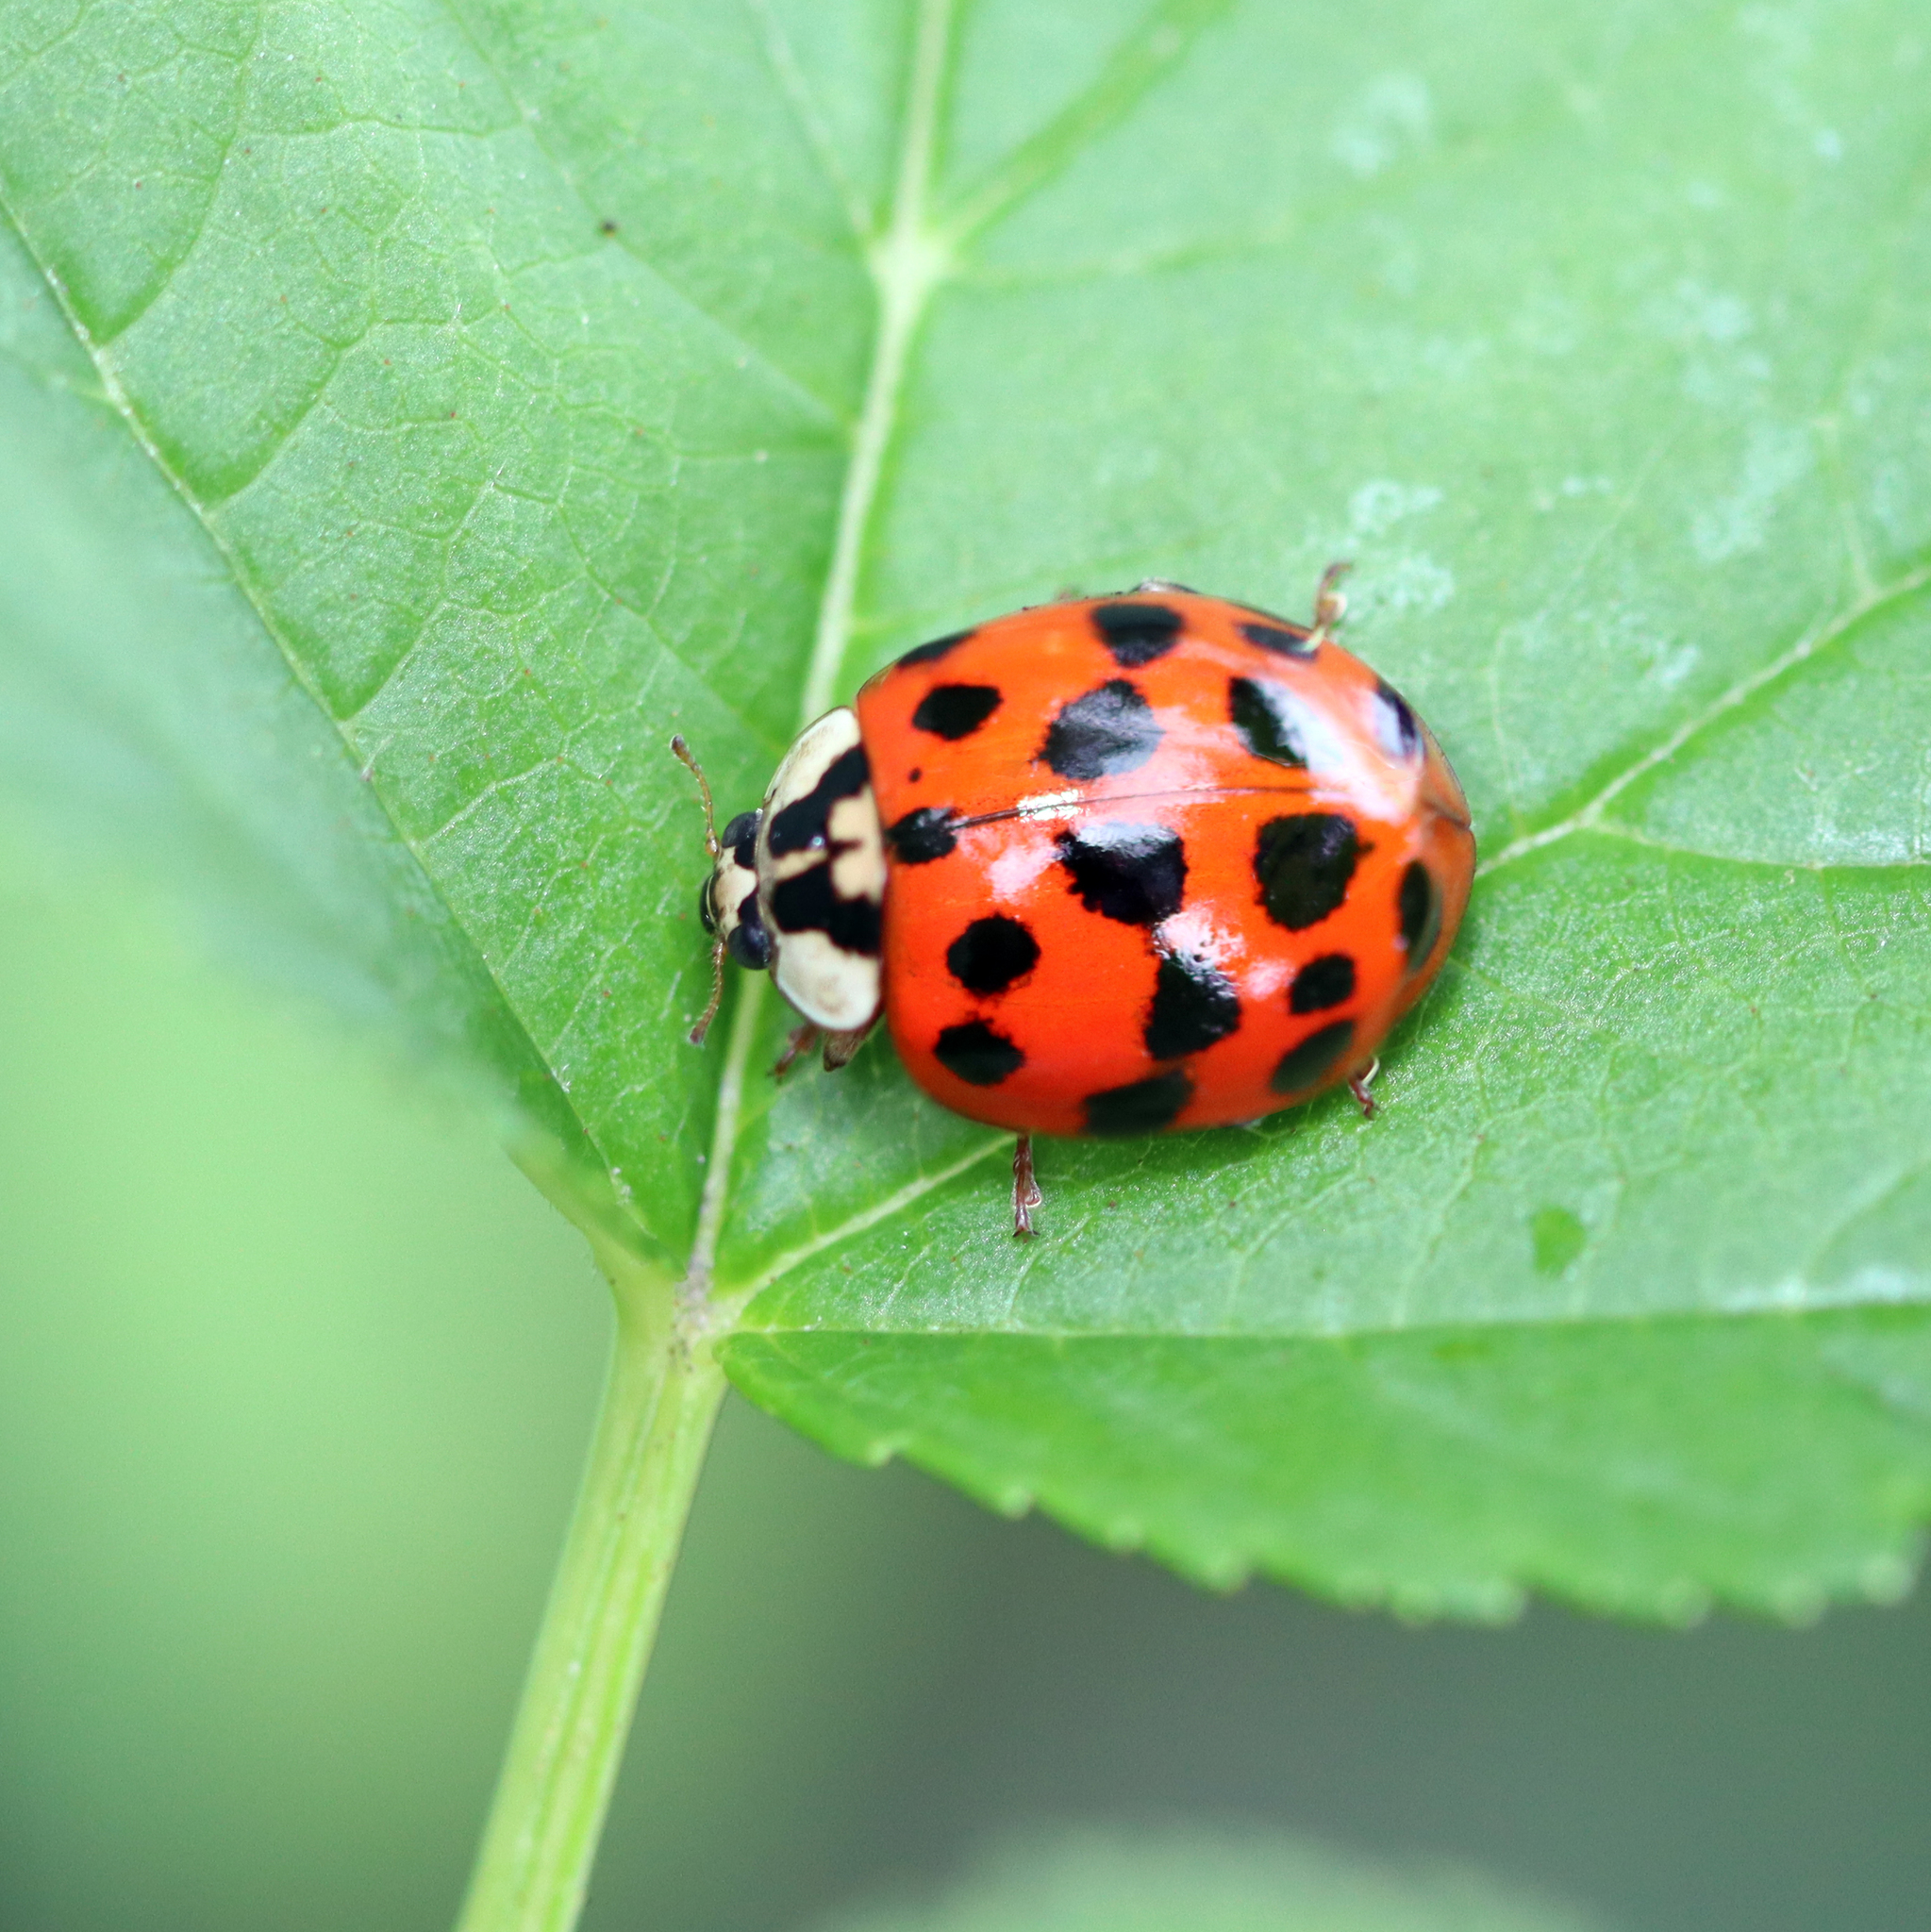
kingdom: Animalia
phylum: Arthropoda
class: Insecta
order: Coleoptera
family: Coccinellidae
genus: Harmonia
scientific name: Harmonia axyridis
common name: Harlequin ladybird
